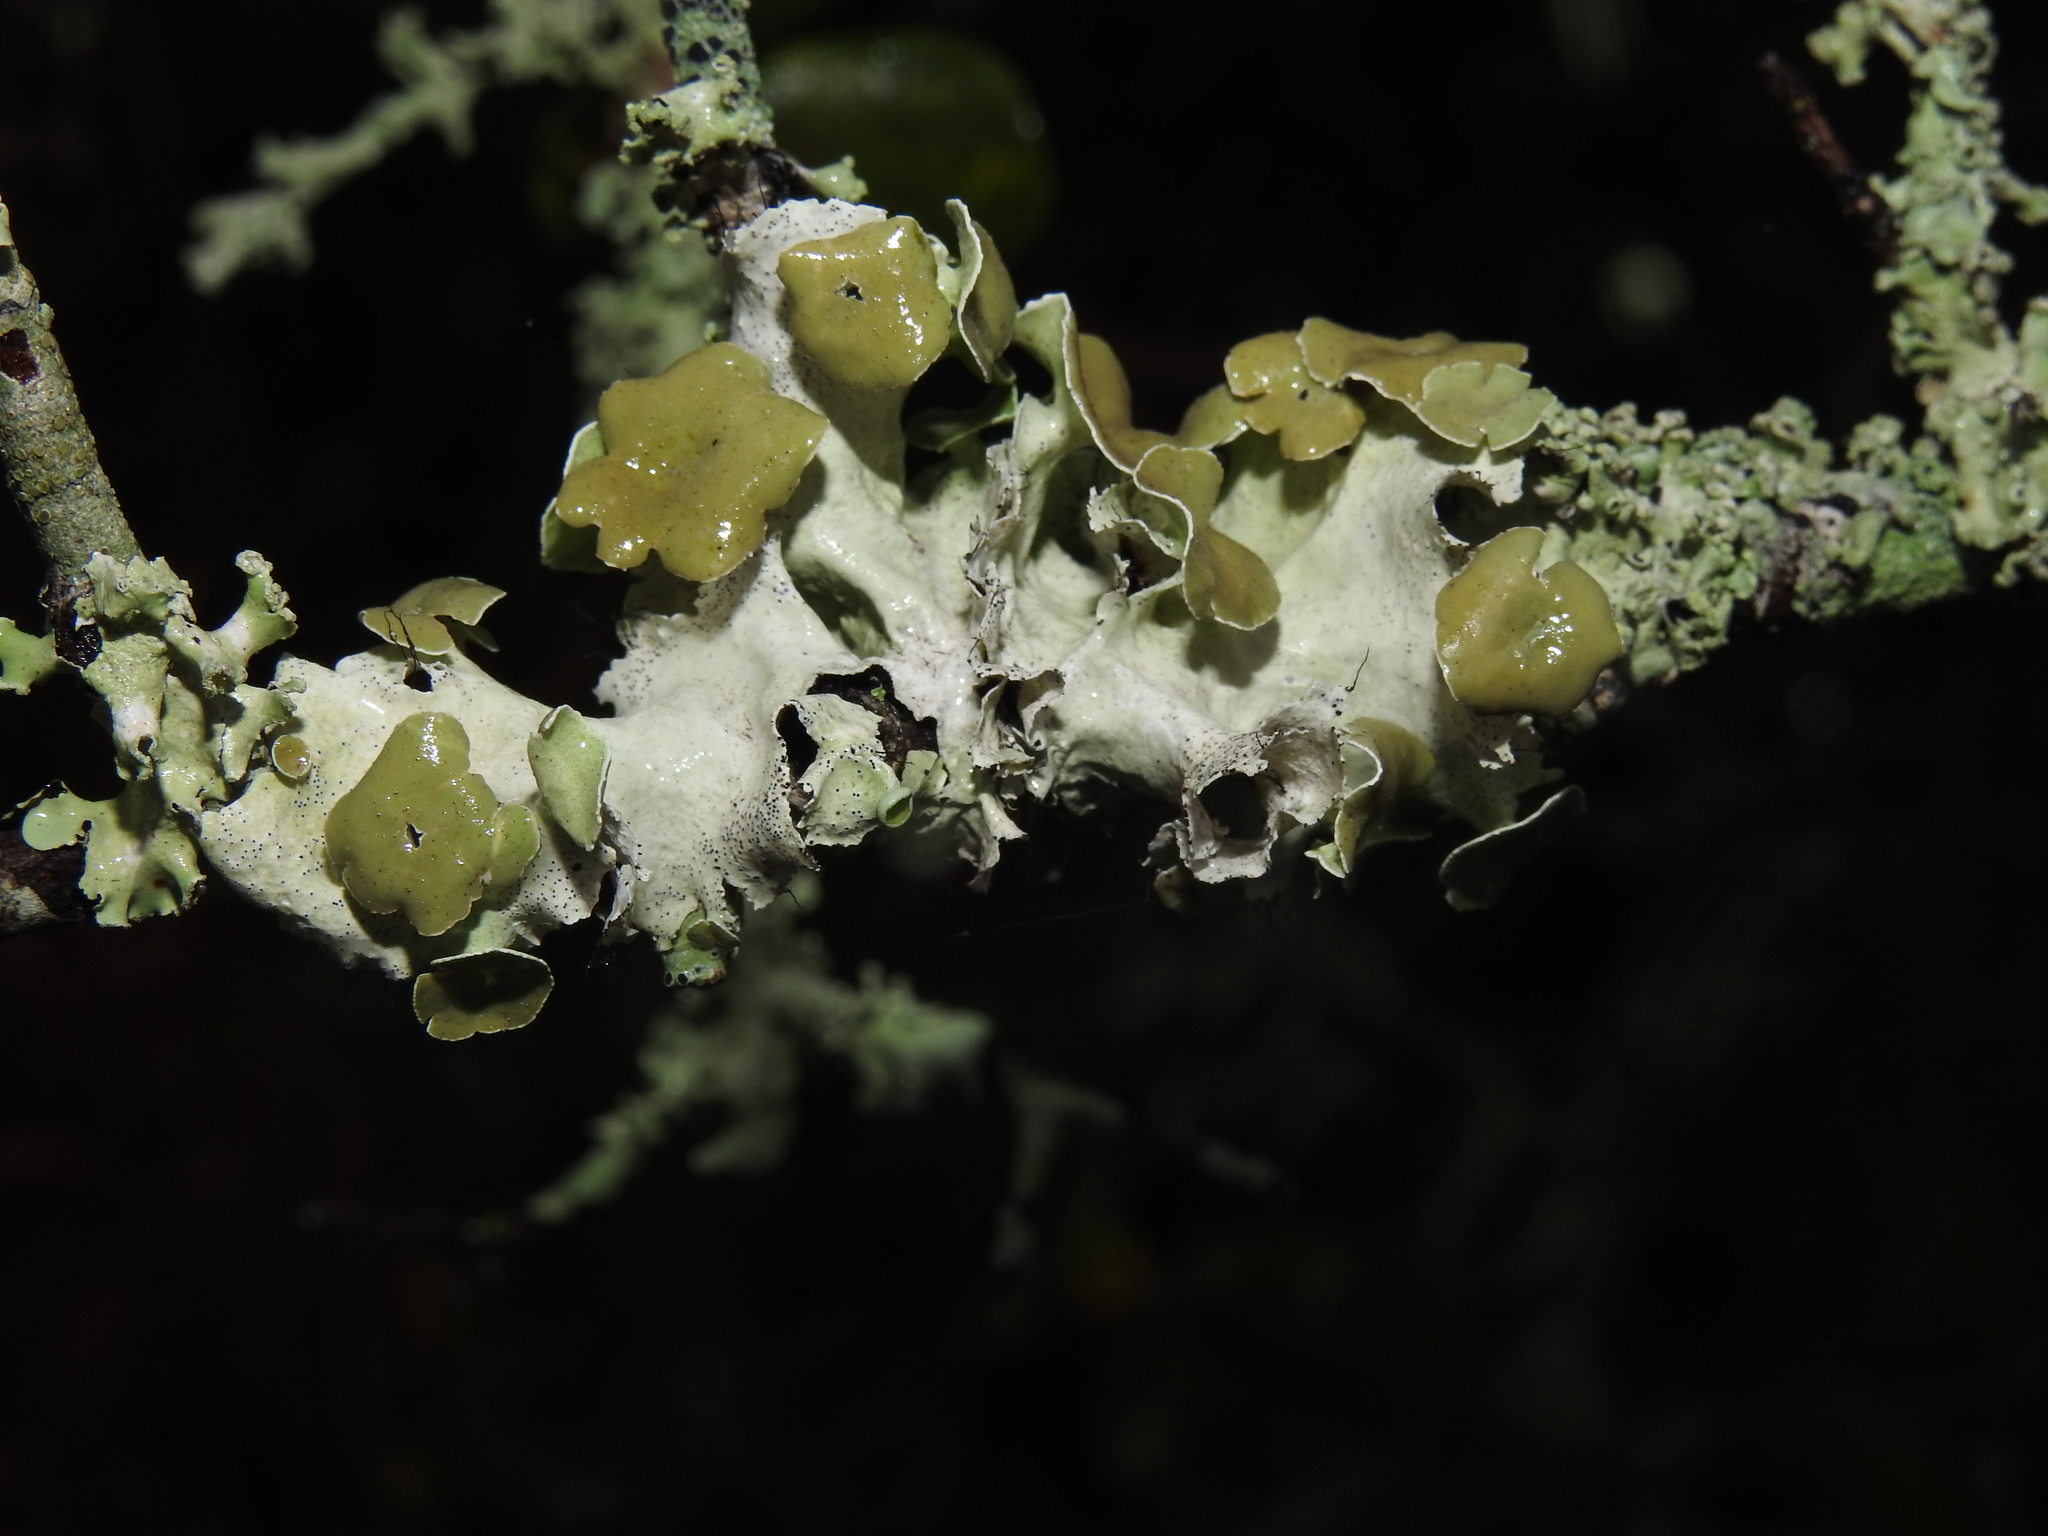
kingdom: Fungi
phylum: Ascomycota
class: Lecanoromycetes
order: Lecanorales
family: Parmeliaceae
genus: Parmotrema
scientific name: Parmotrema perforatum
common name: Perforated ruffle lichen
